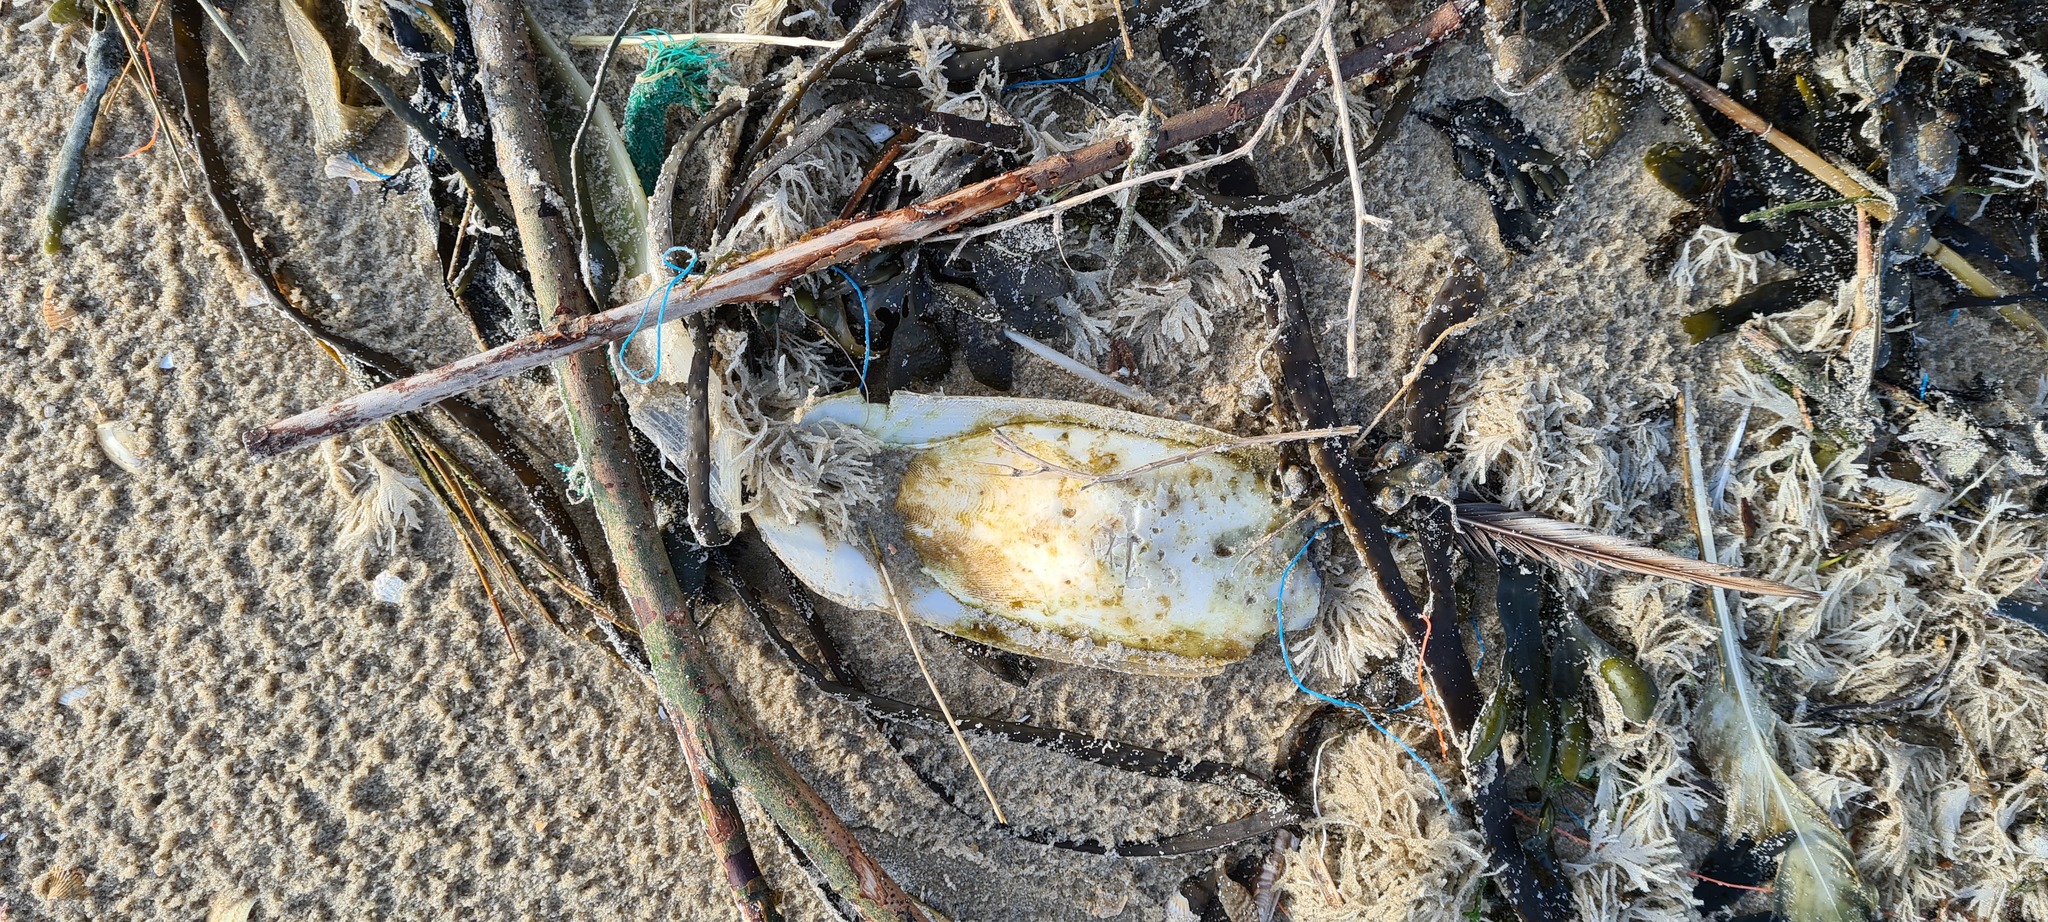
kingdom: Animalia
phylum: Mollusca
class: Cephalopoda
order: Sepiida
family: Sepiidae
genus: Sepia
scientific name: Sepia officinalis
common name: Common cuttlefish
